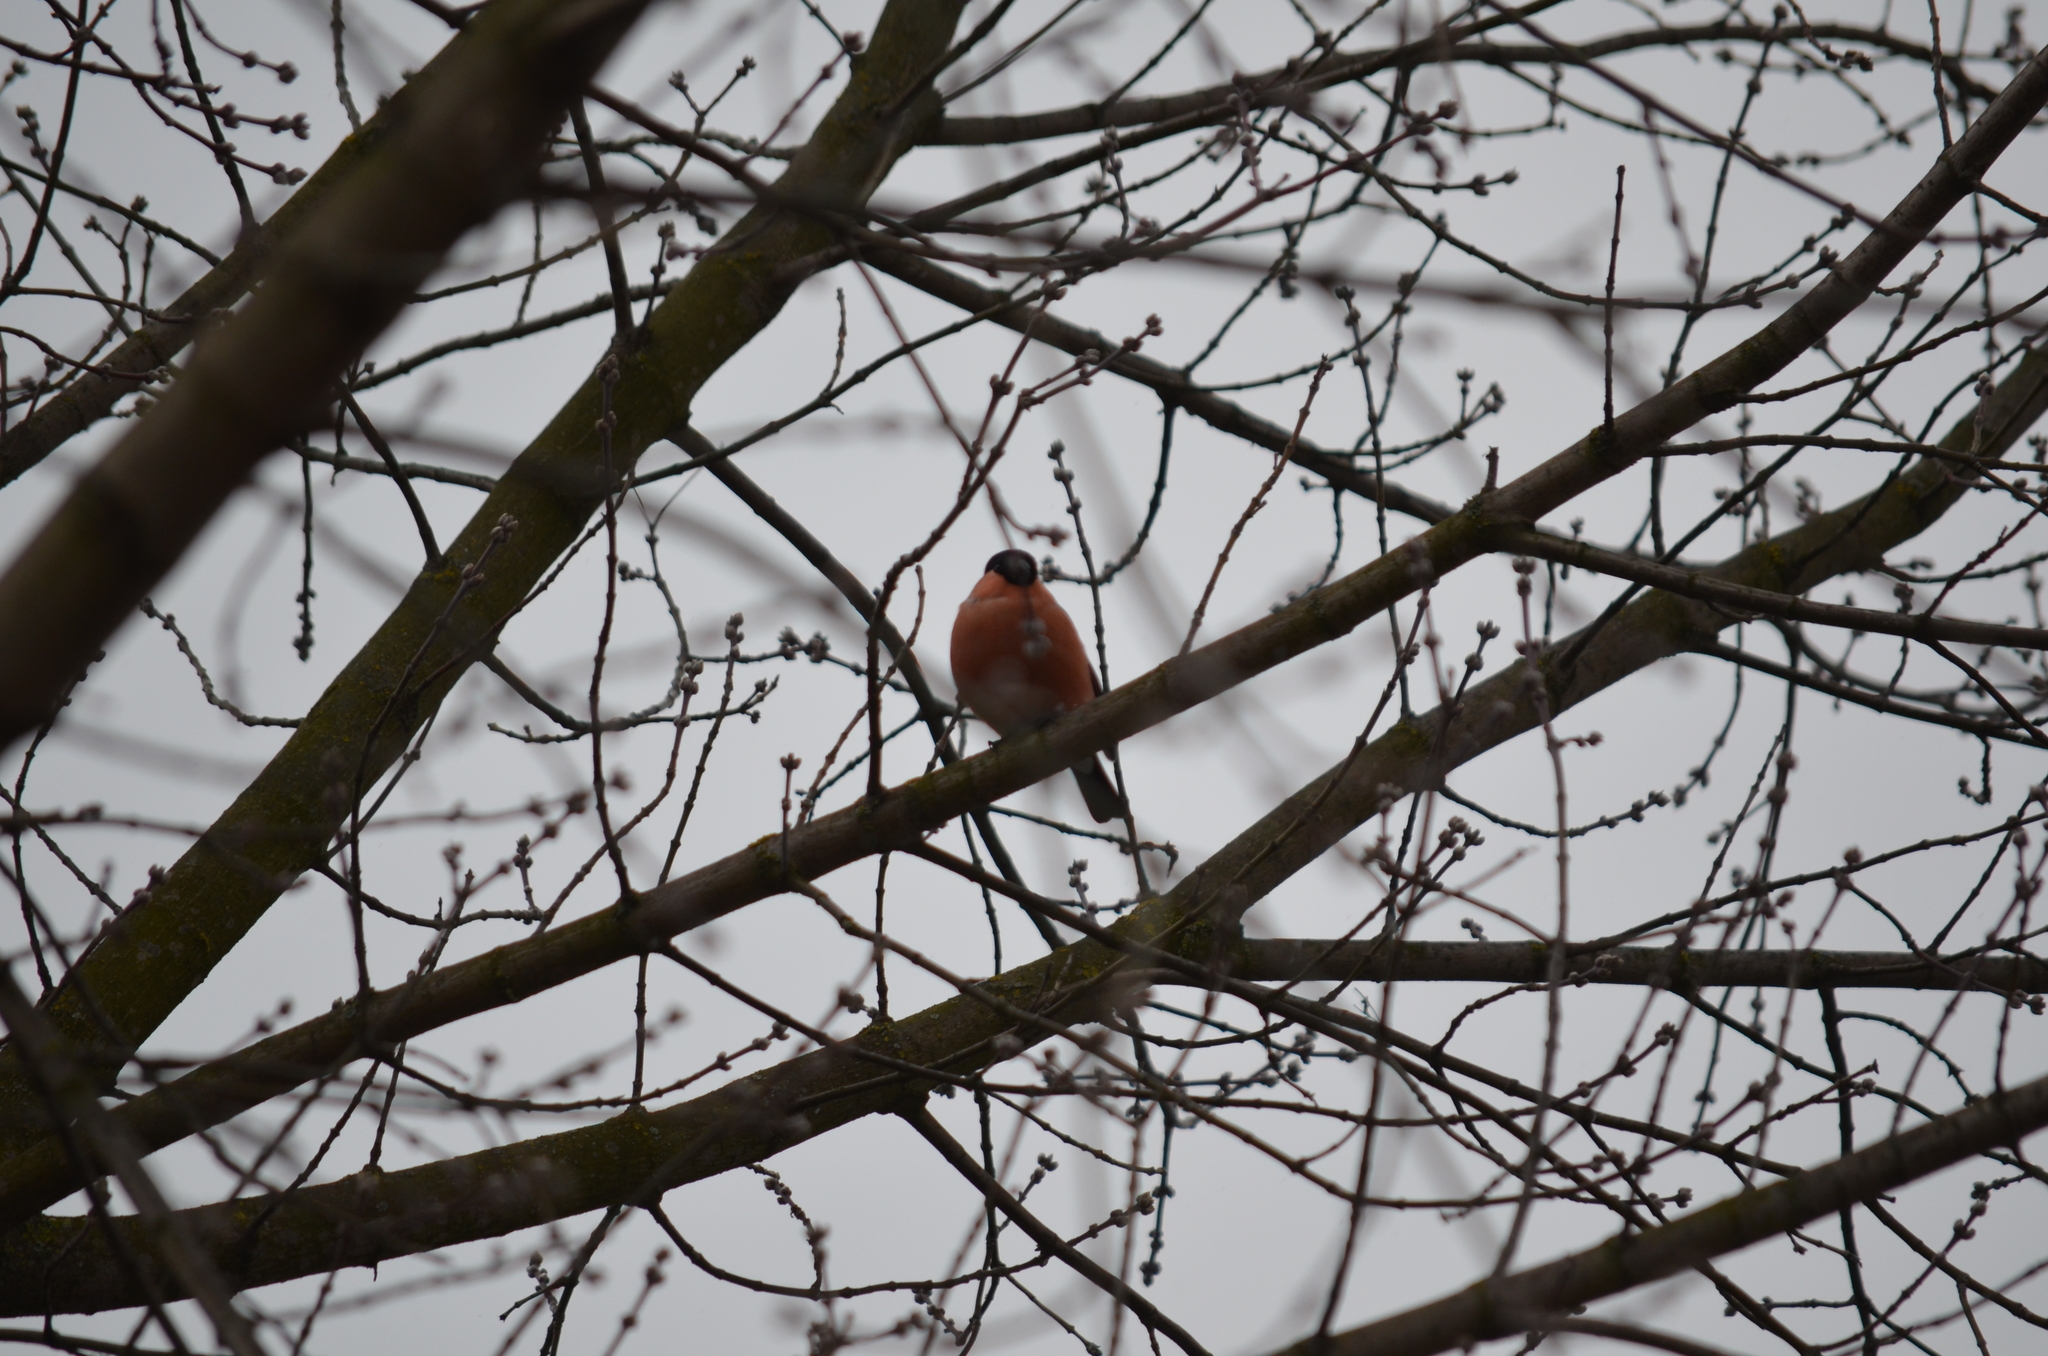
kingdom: Animalia
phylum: Chordata
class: Aves
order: Passeriformes
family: Fringillidae
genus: Pyrrhula
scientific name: Pyrrhula pyrrhula
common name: Eurasian bullfinch
